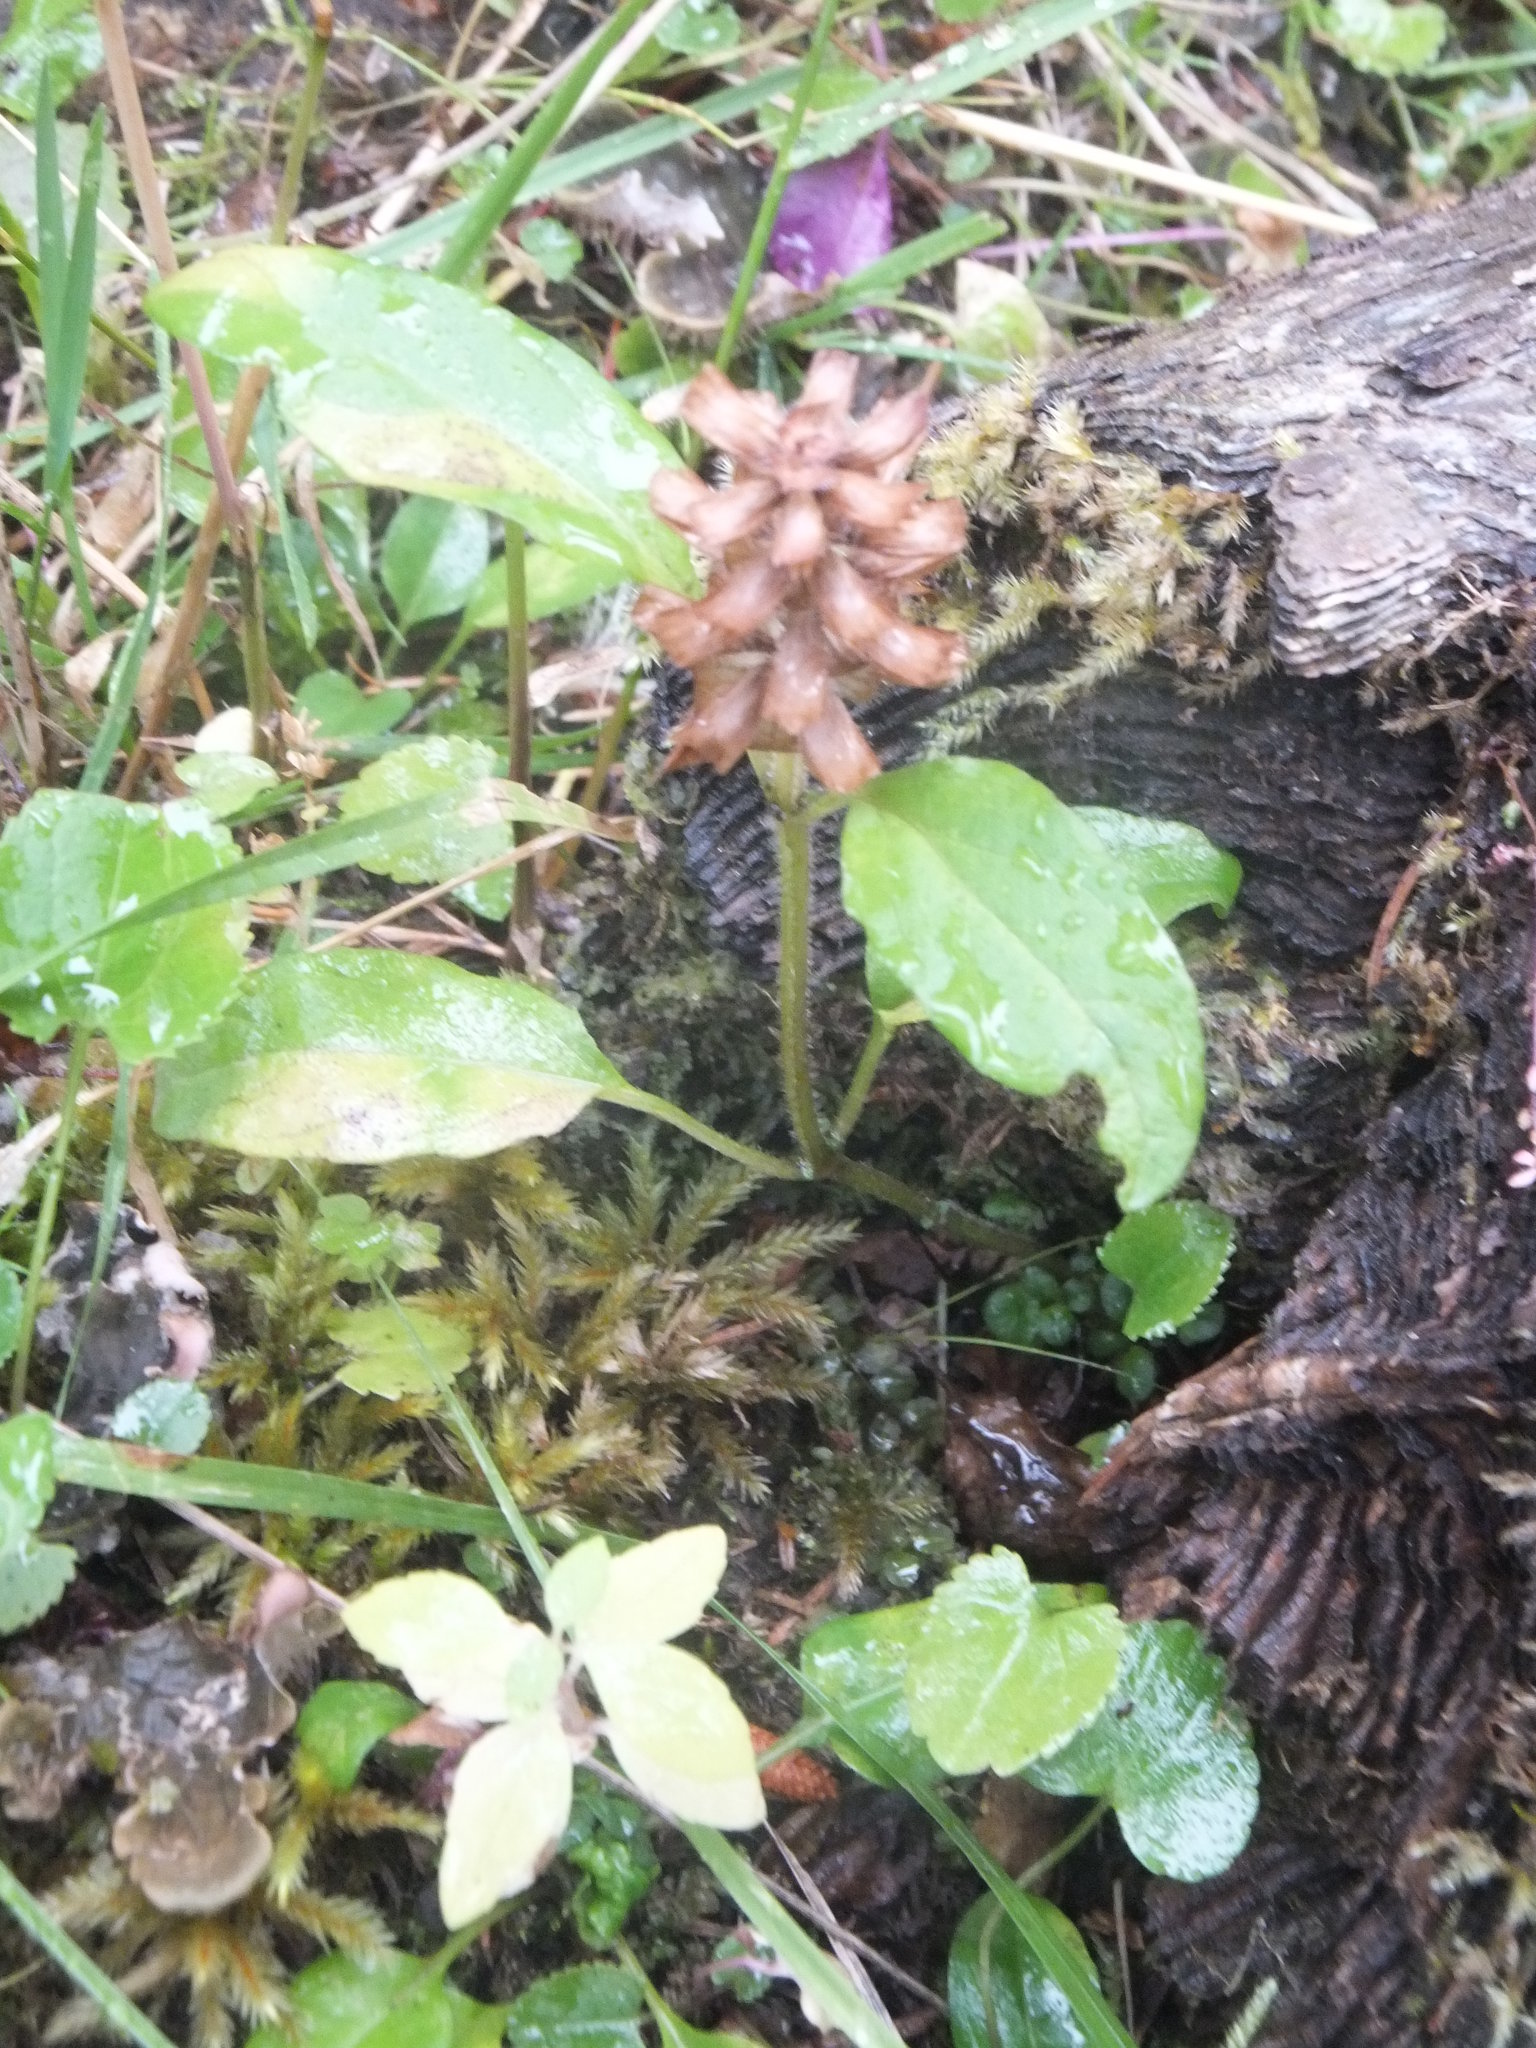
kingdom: Plantae
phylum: Tracheophyta
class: Magnoliopsida
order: Lamiales
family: Lamiaceae
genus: Prunella
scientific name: Prunella vulgaris
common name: Heal-all
